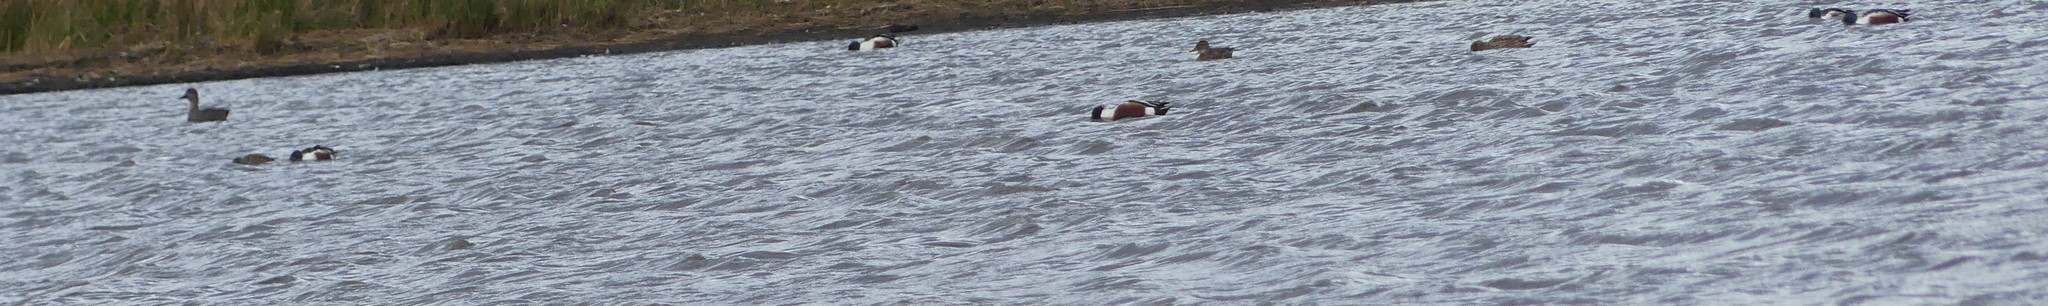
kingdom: Animalia
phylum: Chordata
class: Aves
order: Anseriformes
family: Anatidae
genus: Spatula
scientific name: Spatula clypeata
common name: Northern shoveler
